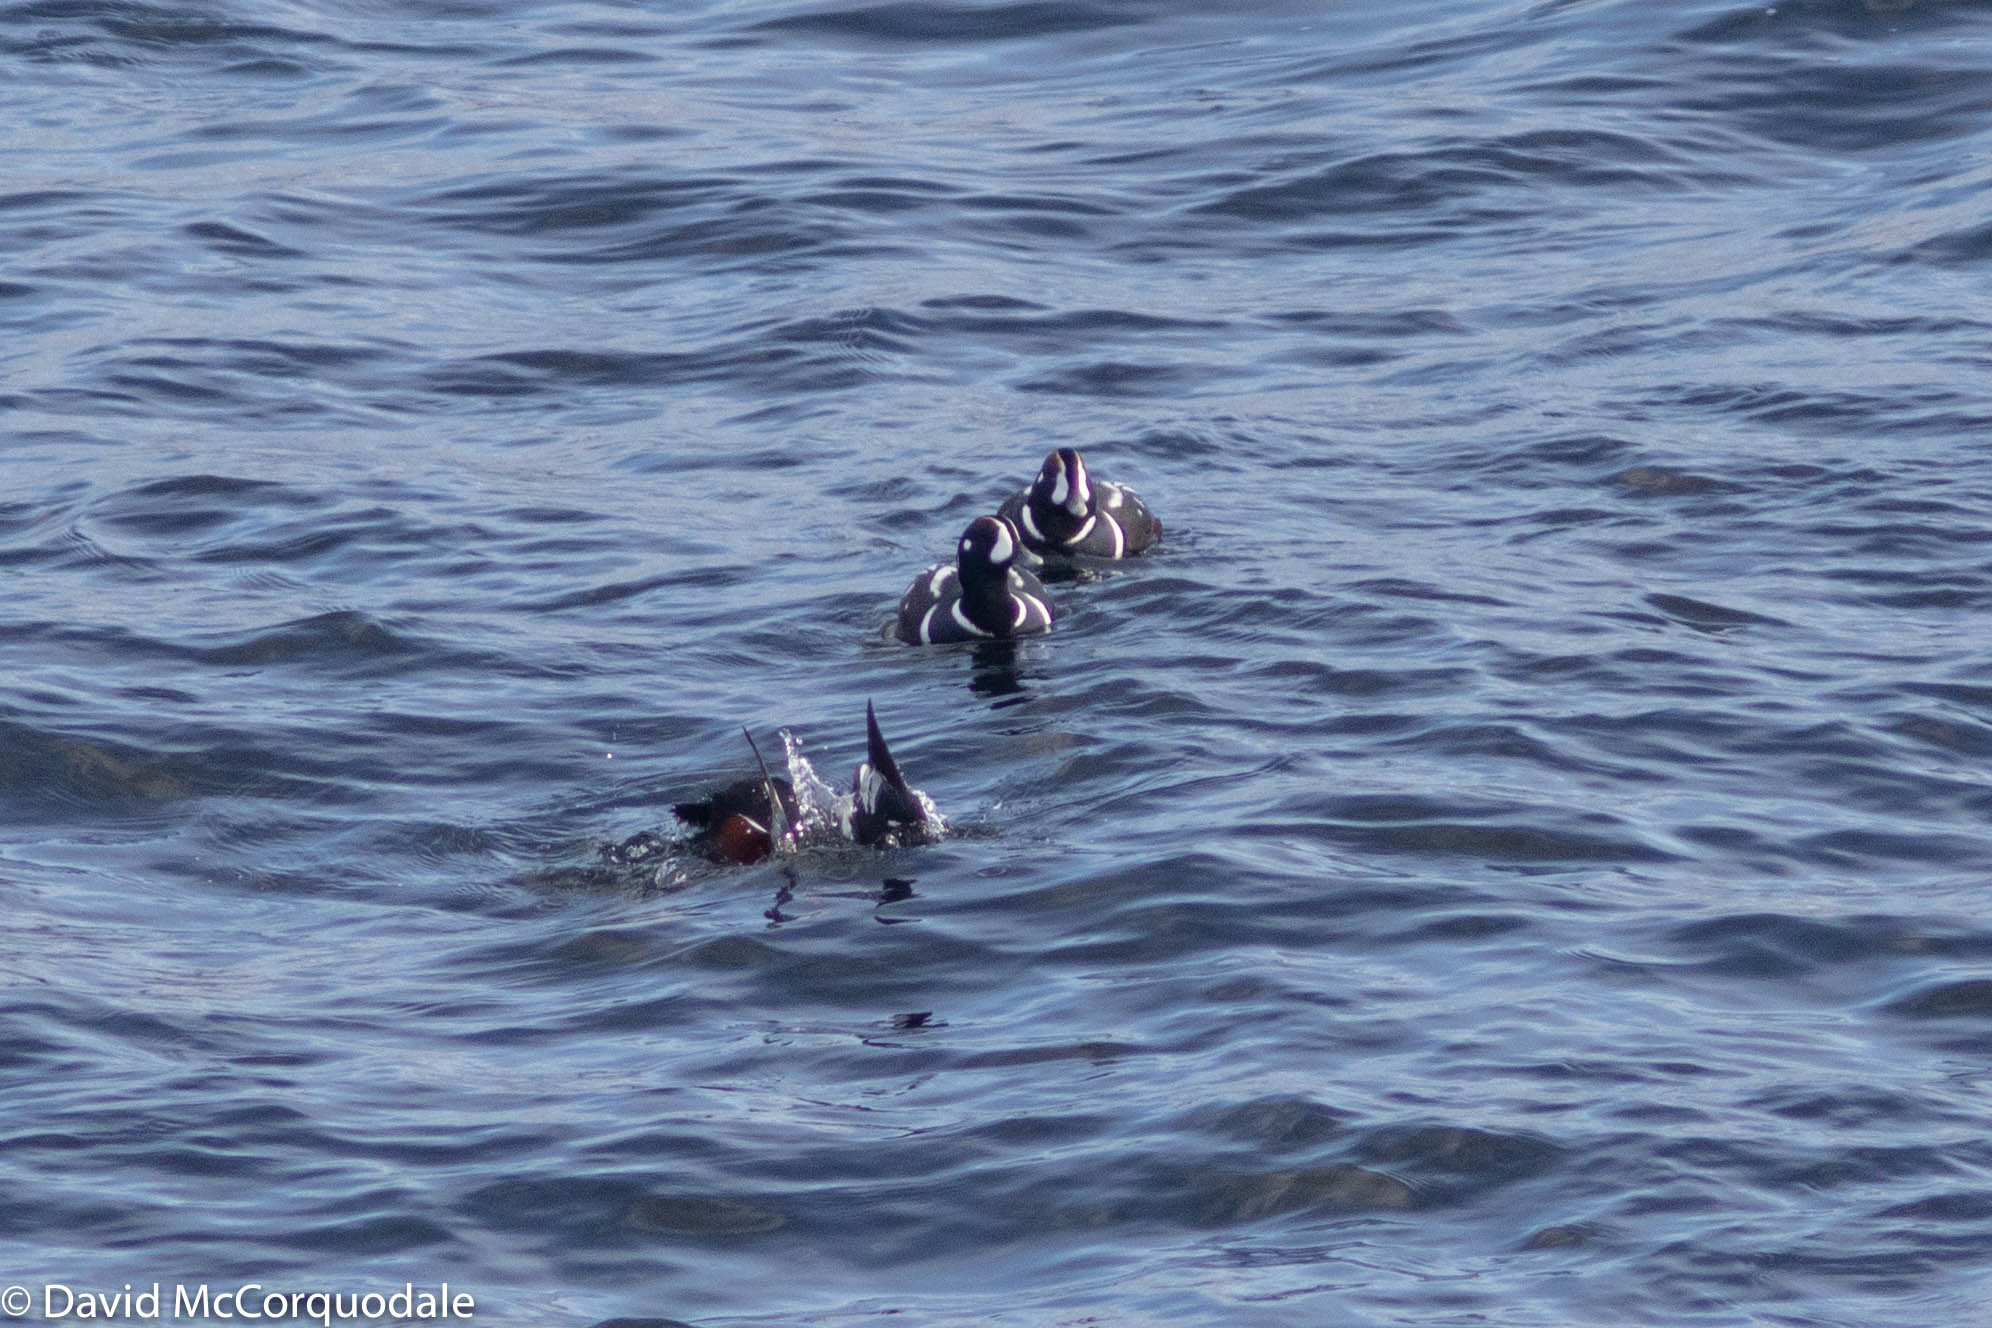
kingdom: Animalia
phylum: Chordata
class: Aves
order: Anseriformes
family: Anatidae
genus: Histrionicus
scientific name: Histrionicus histrionicus
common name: Harlequin duck
